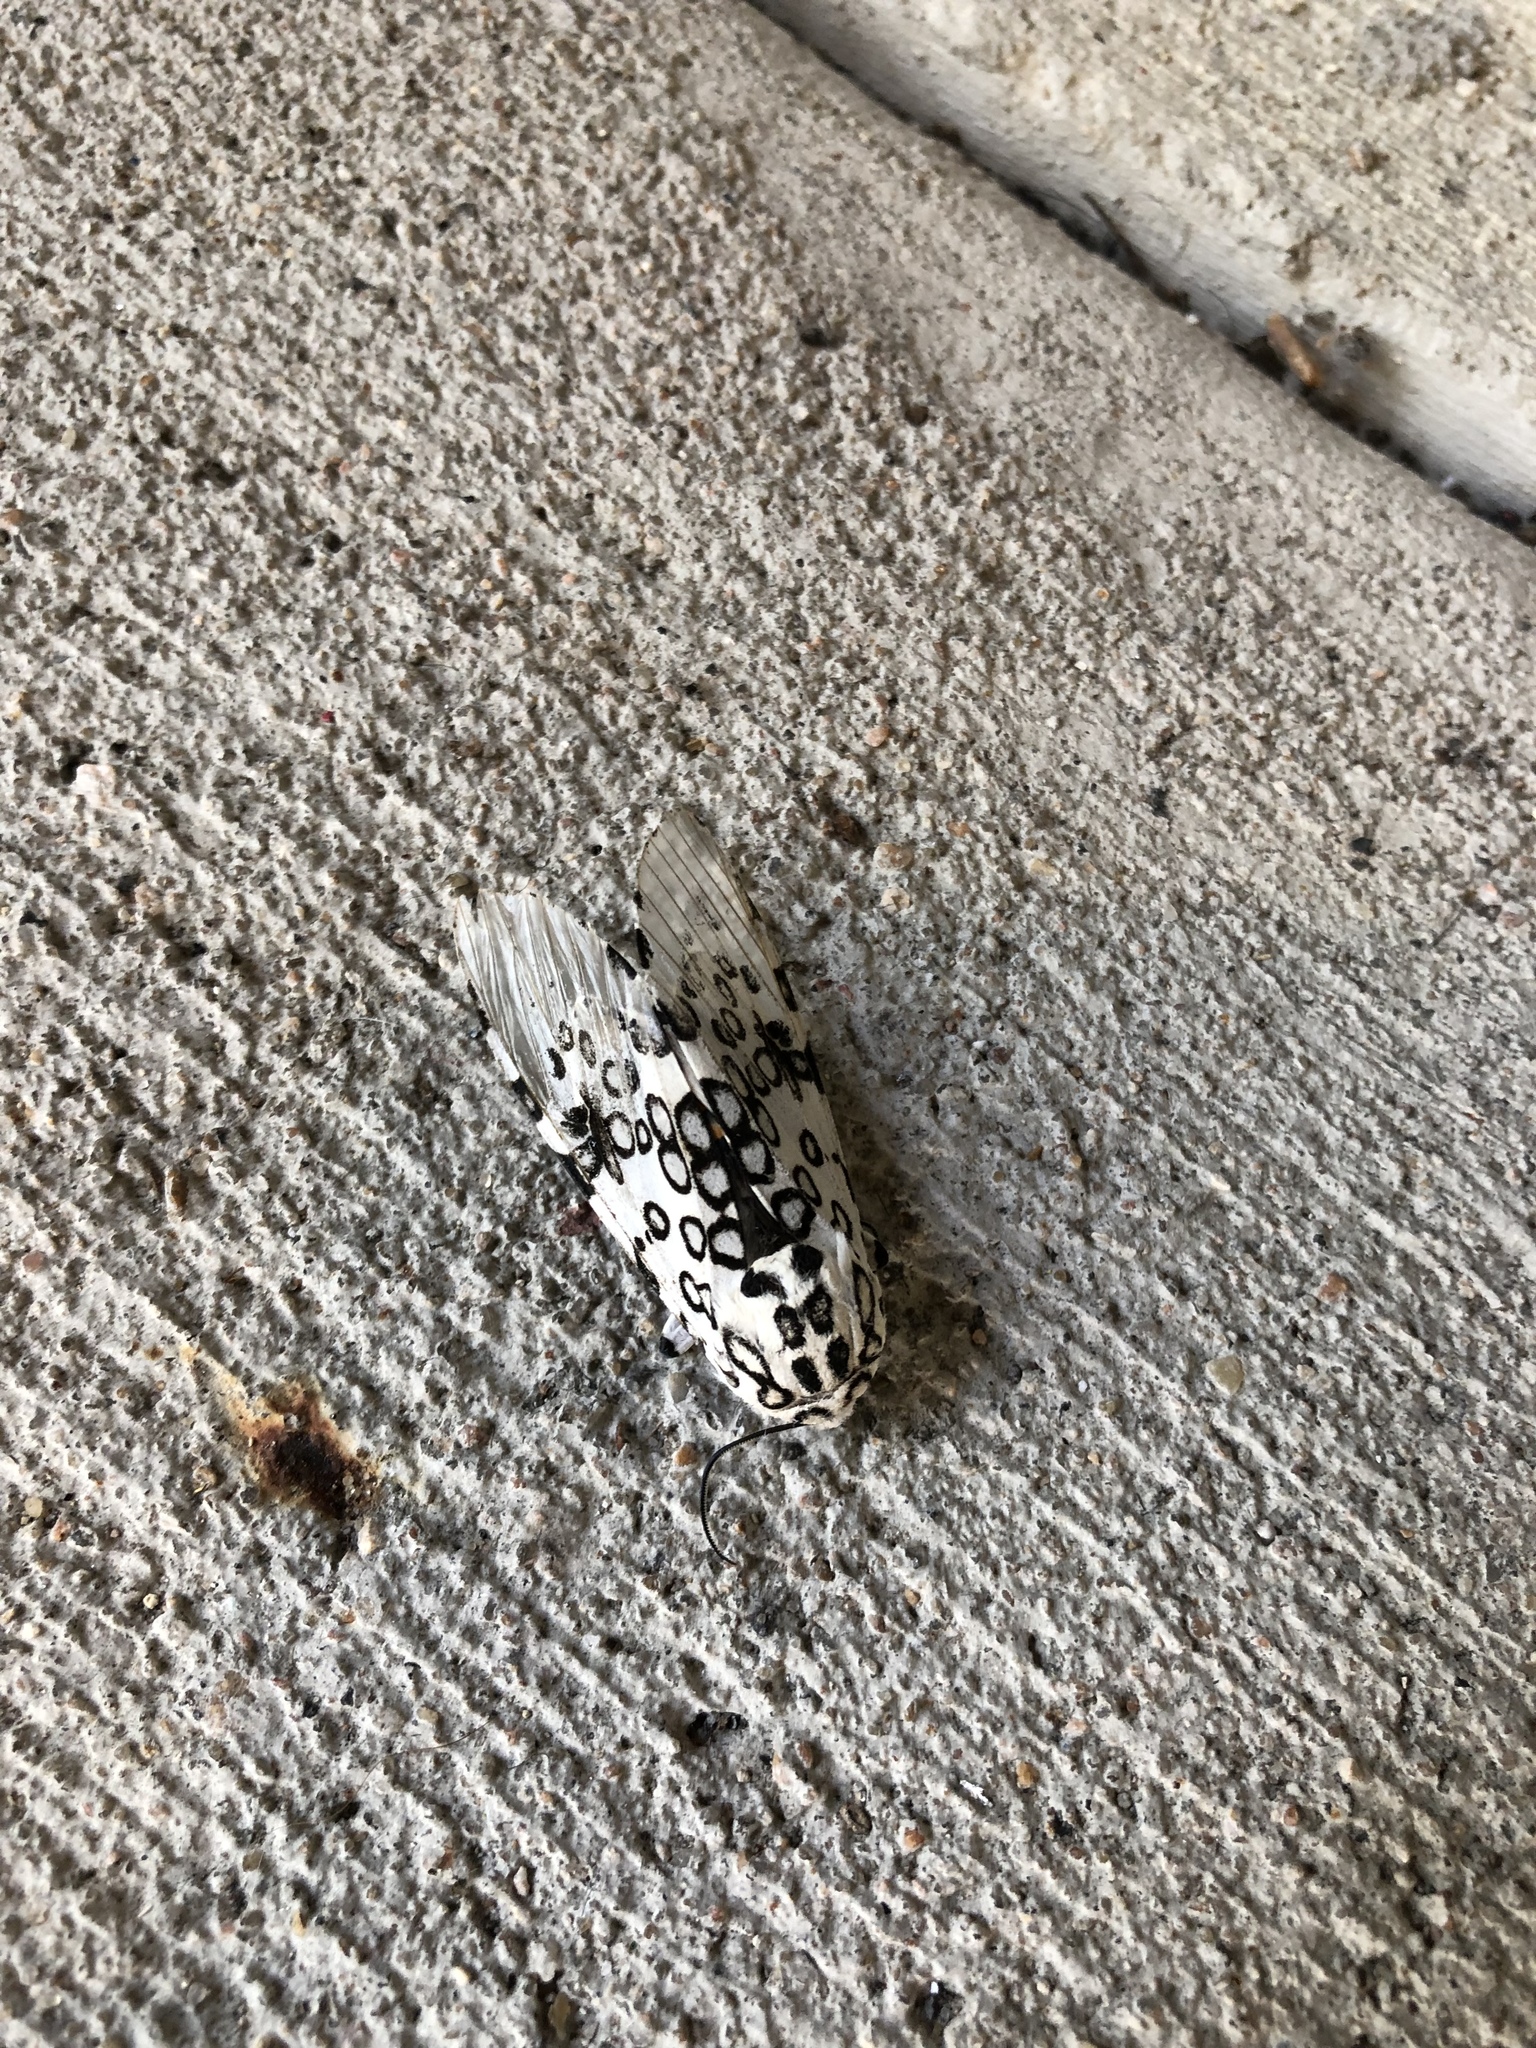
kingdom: Animalia
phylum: Arthropoda
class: Insecta
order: Lepidoptera
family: Erebidae
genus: Hypercompe
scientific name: Hypercompe scribonia
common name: Giant leopard moth
